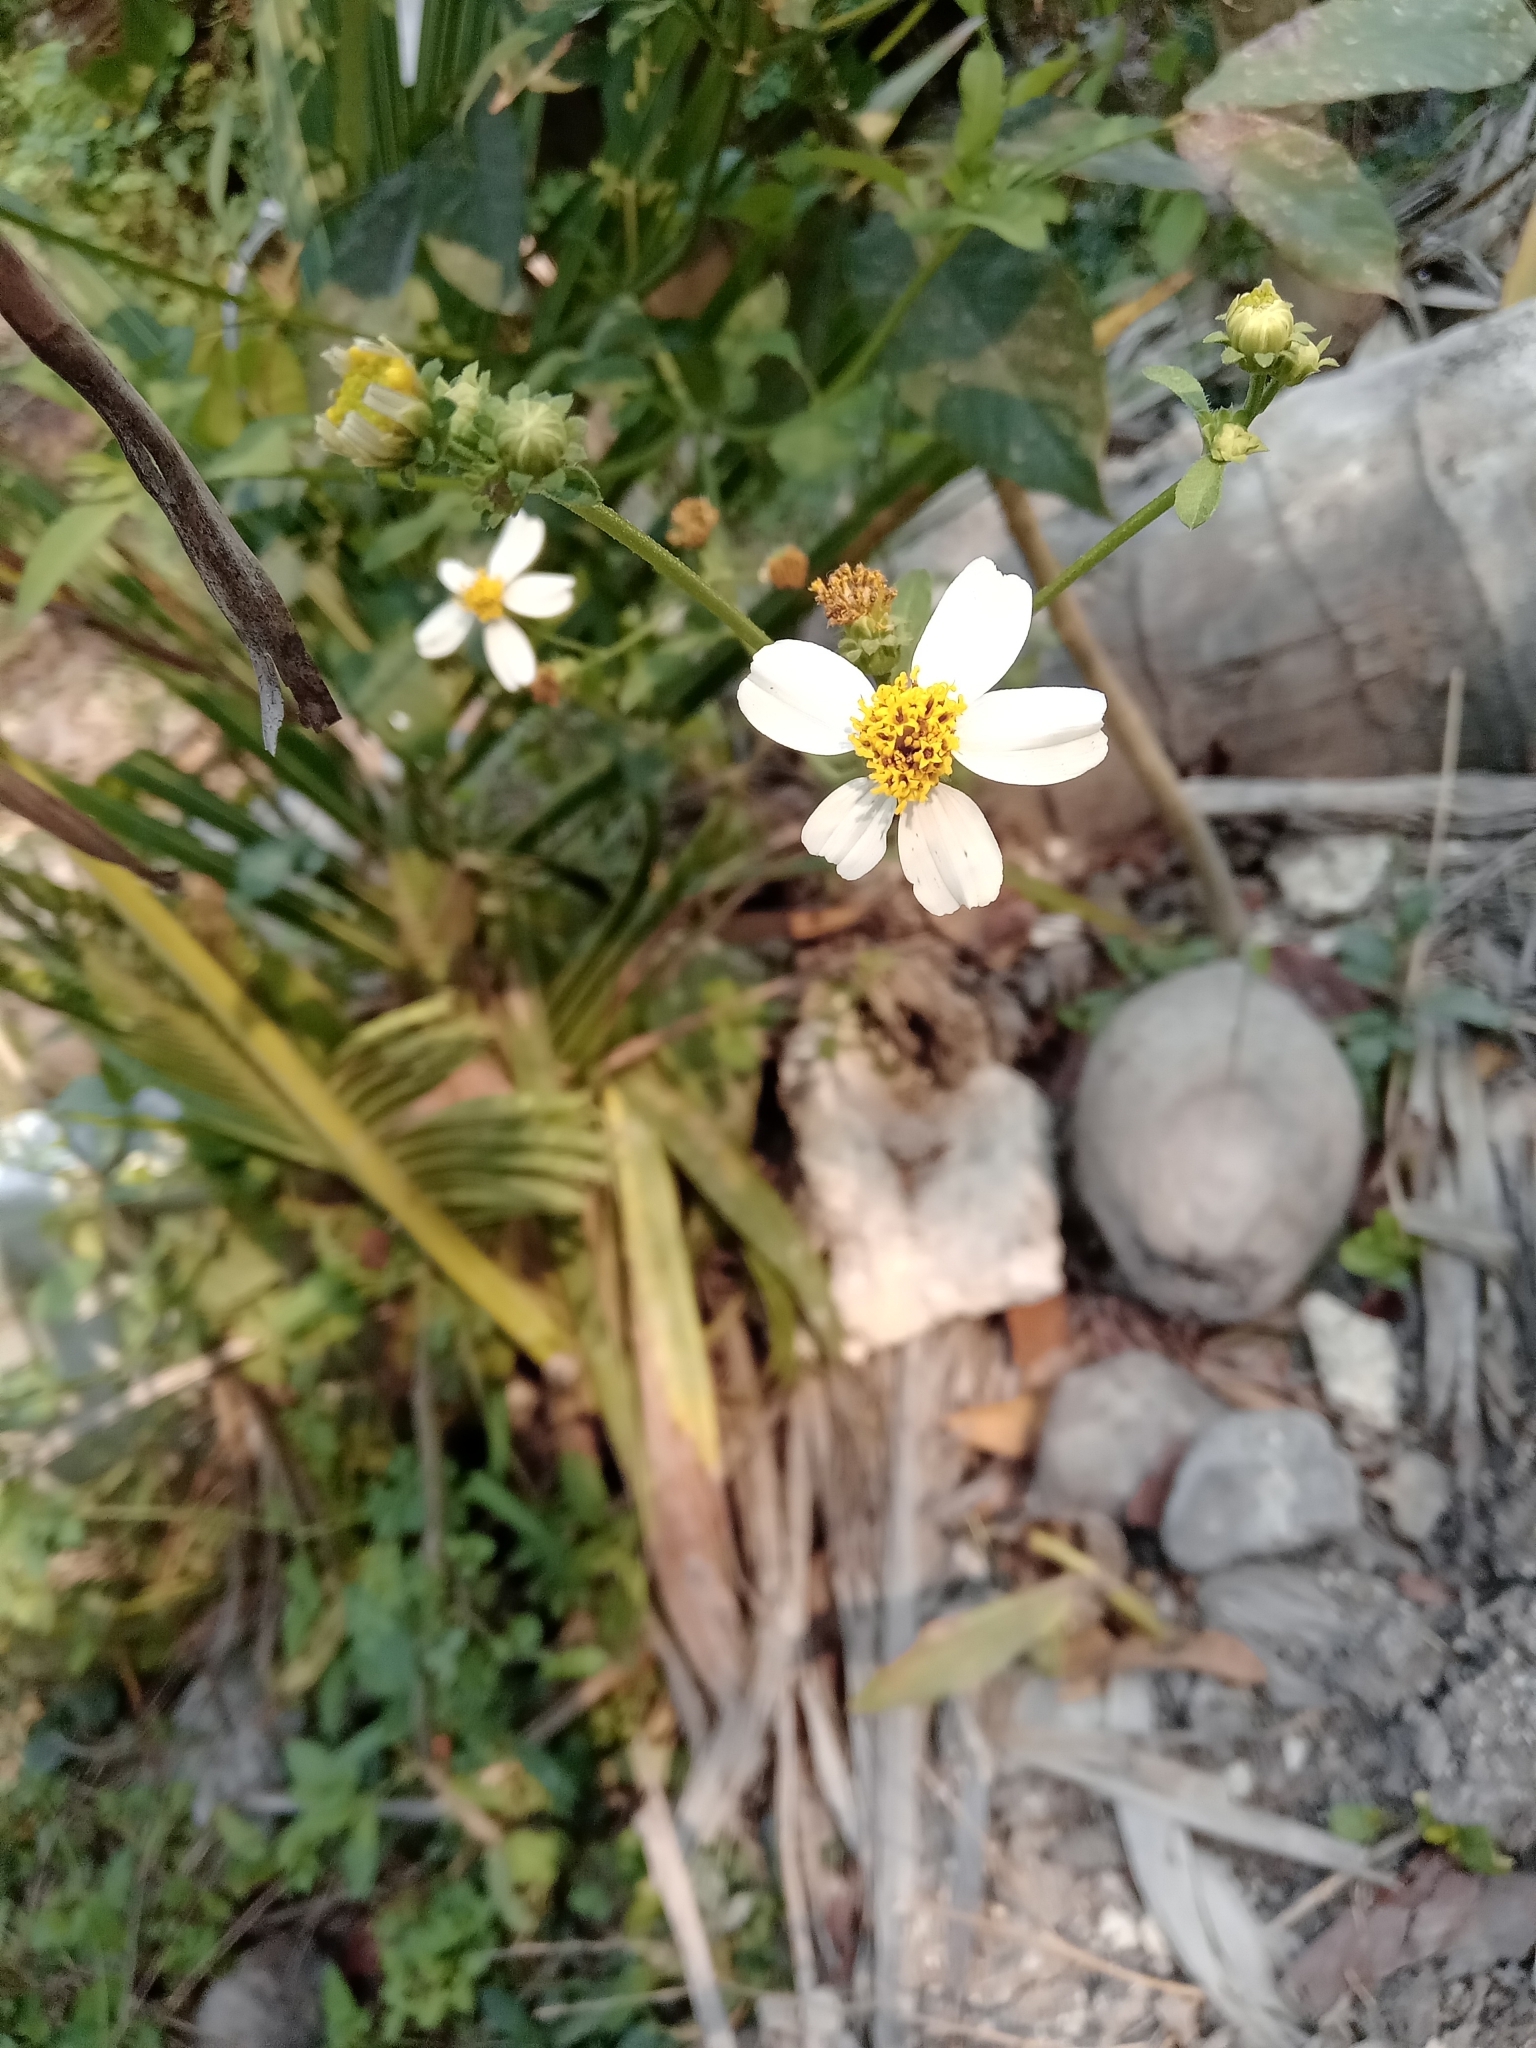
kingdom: Plantae
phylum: Tracheophyta
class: Magnoliopsida
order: Asterales
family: Asteraceae
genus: Bidens
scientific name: Bidens alba
